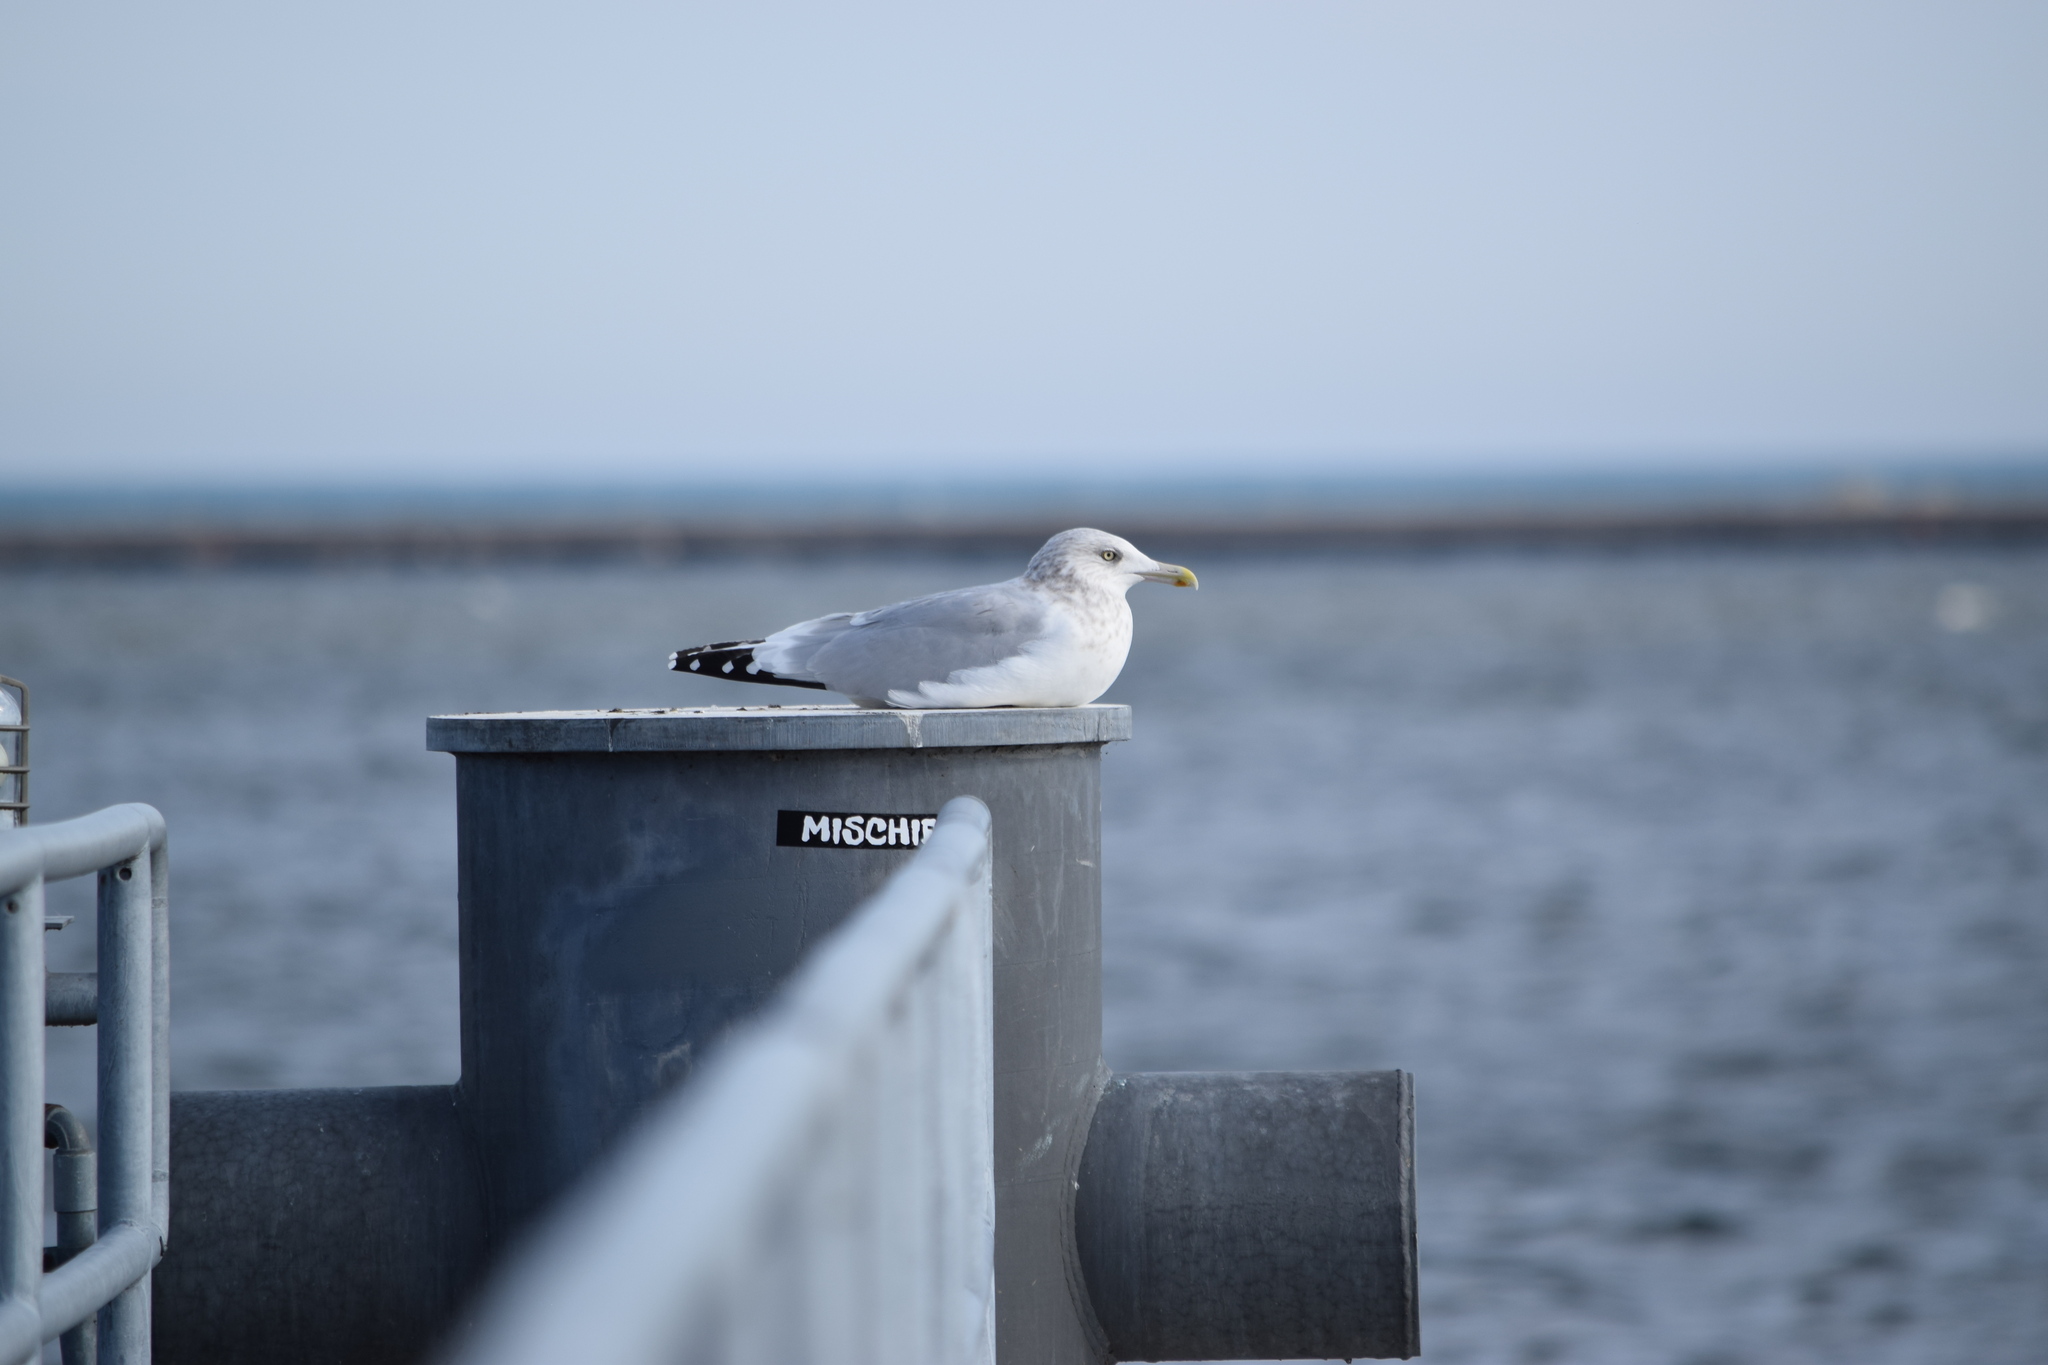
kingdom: Animalia
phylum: Chordata
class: Aves
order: Charadriiformes
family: Laridae
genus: Larus
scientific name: Larus argentatus
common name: Herring gull
